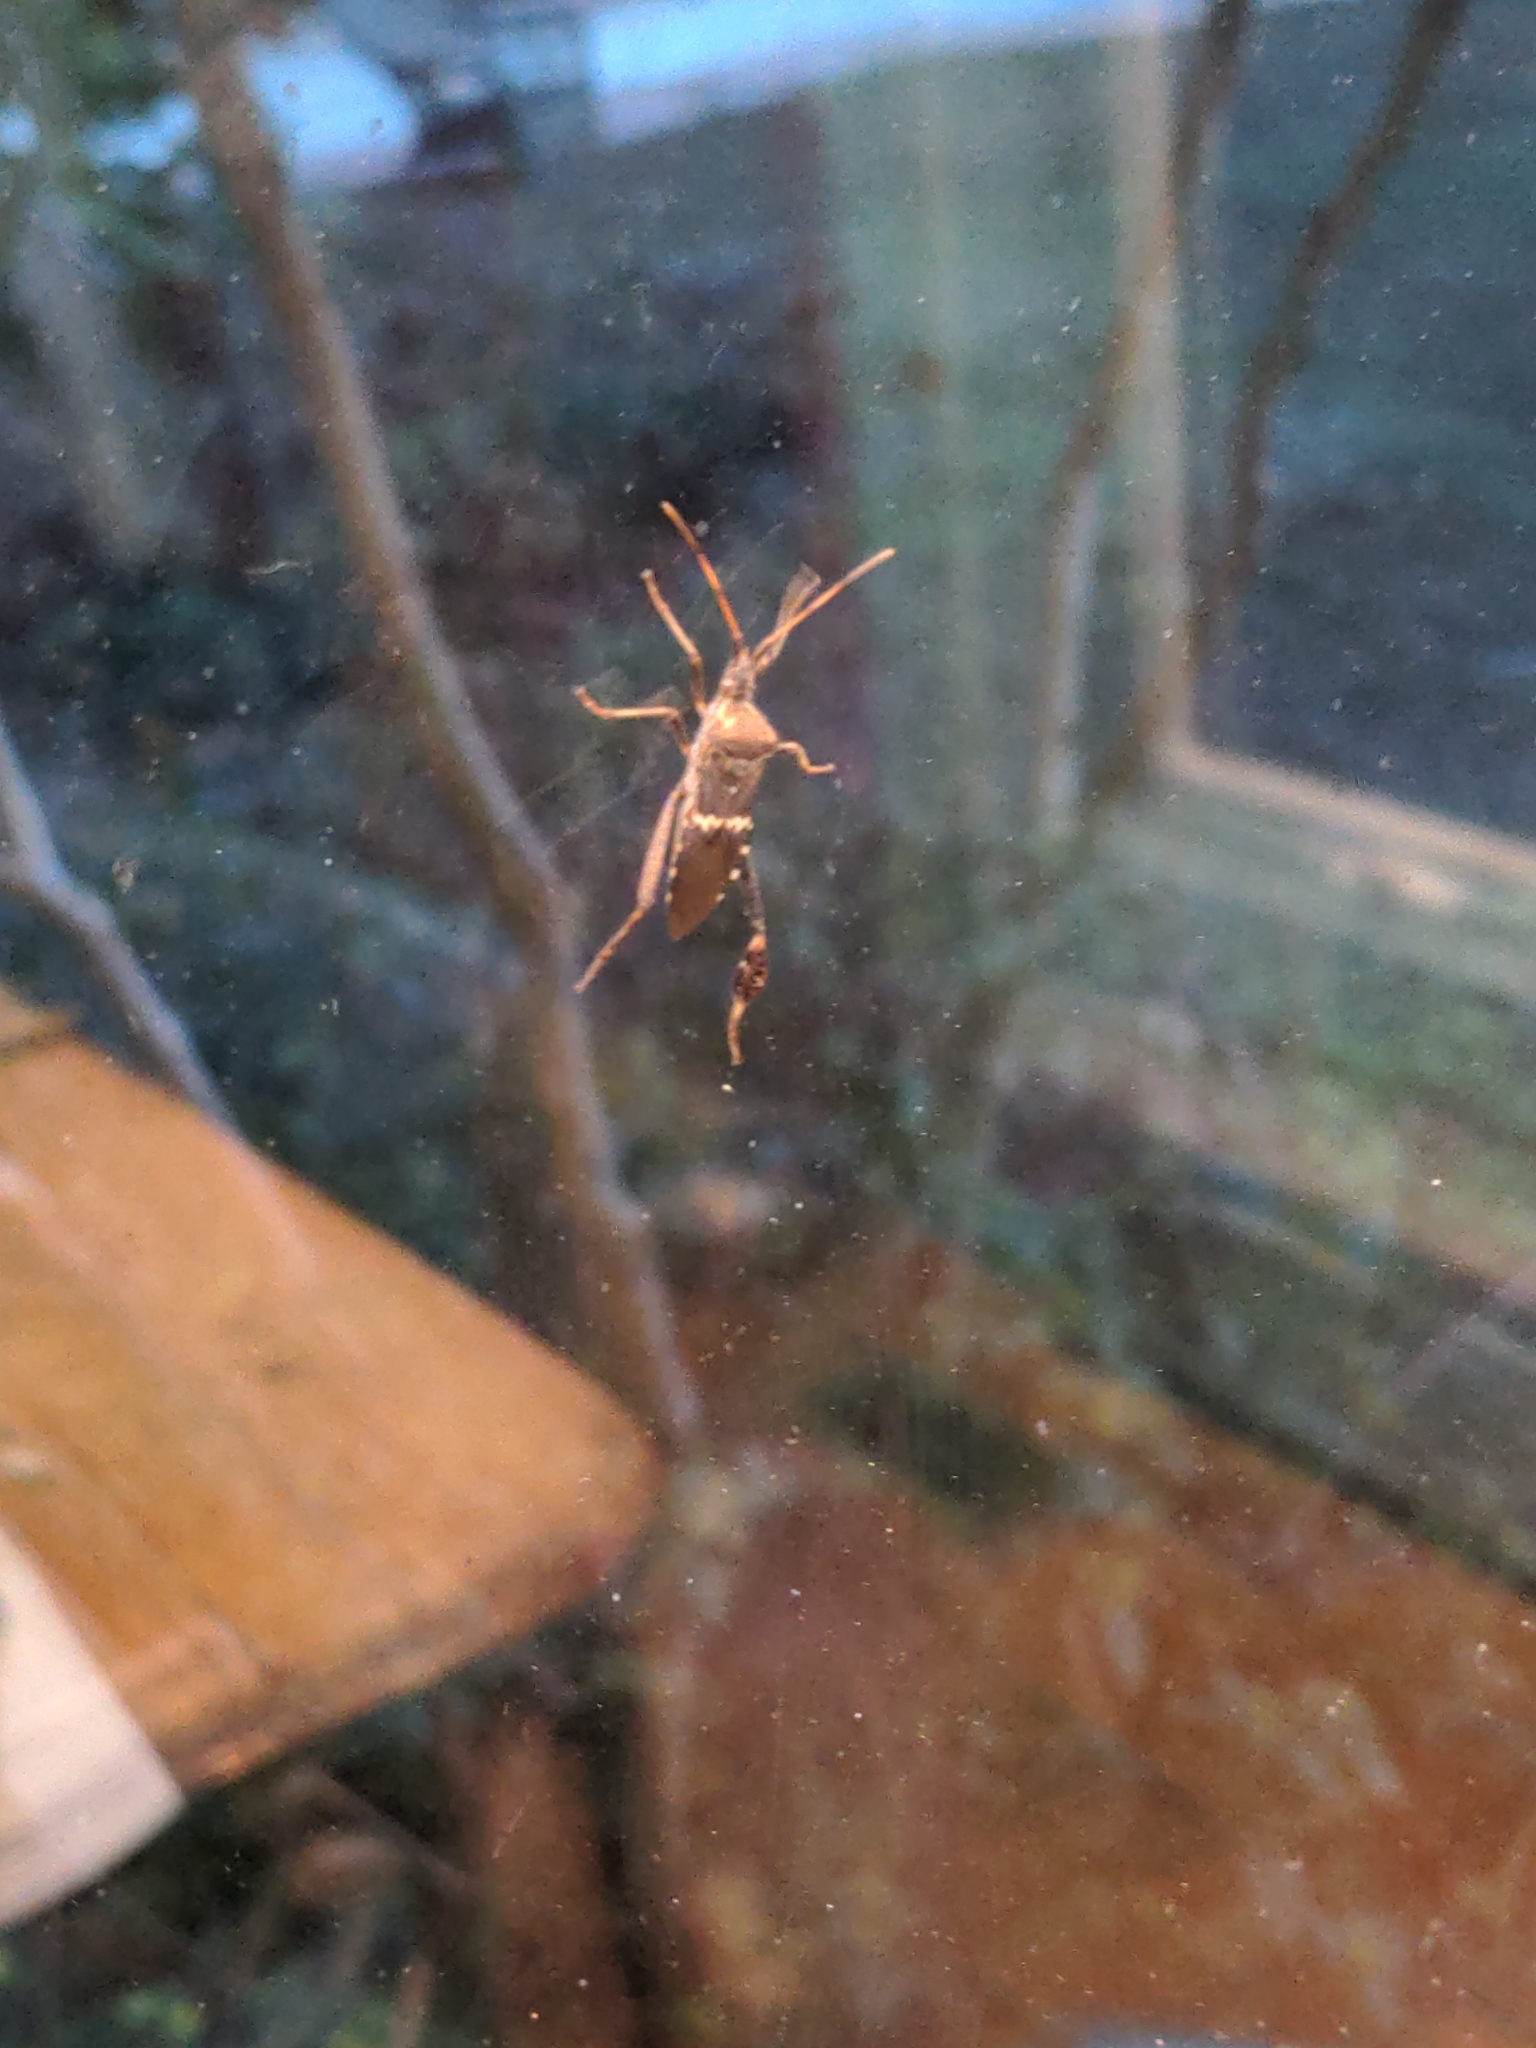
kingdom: Animalia
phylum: Arthropoda
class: Insecta
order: Hemiptera
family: Coreidae
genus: Leptoglossus
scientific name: Leptoglossus clypealis
